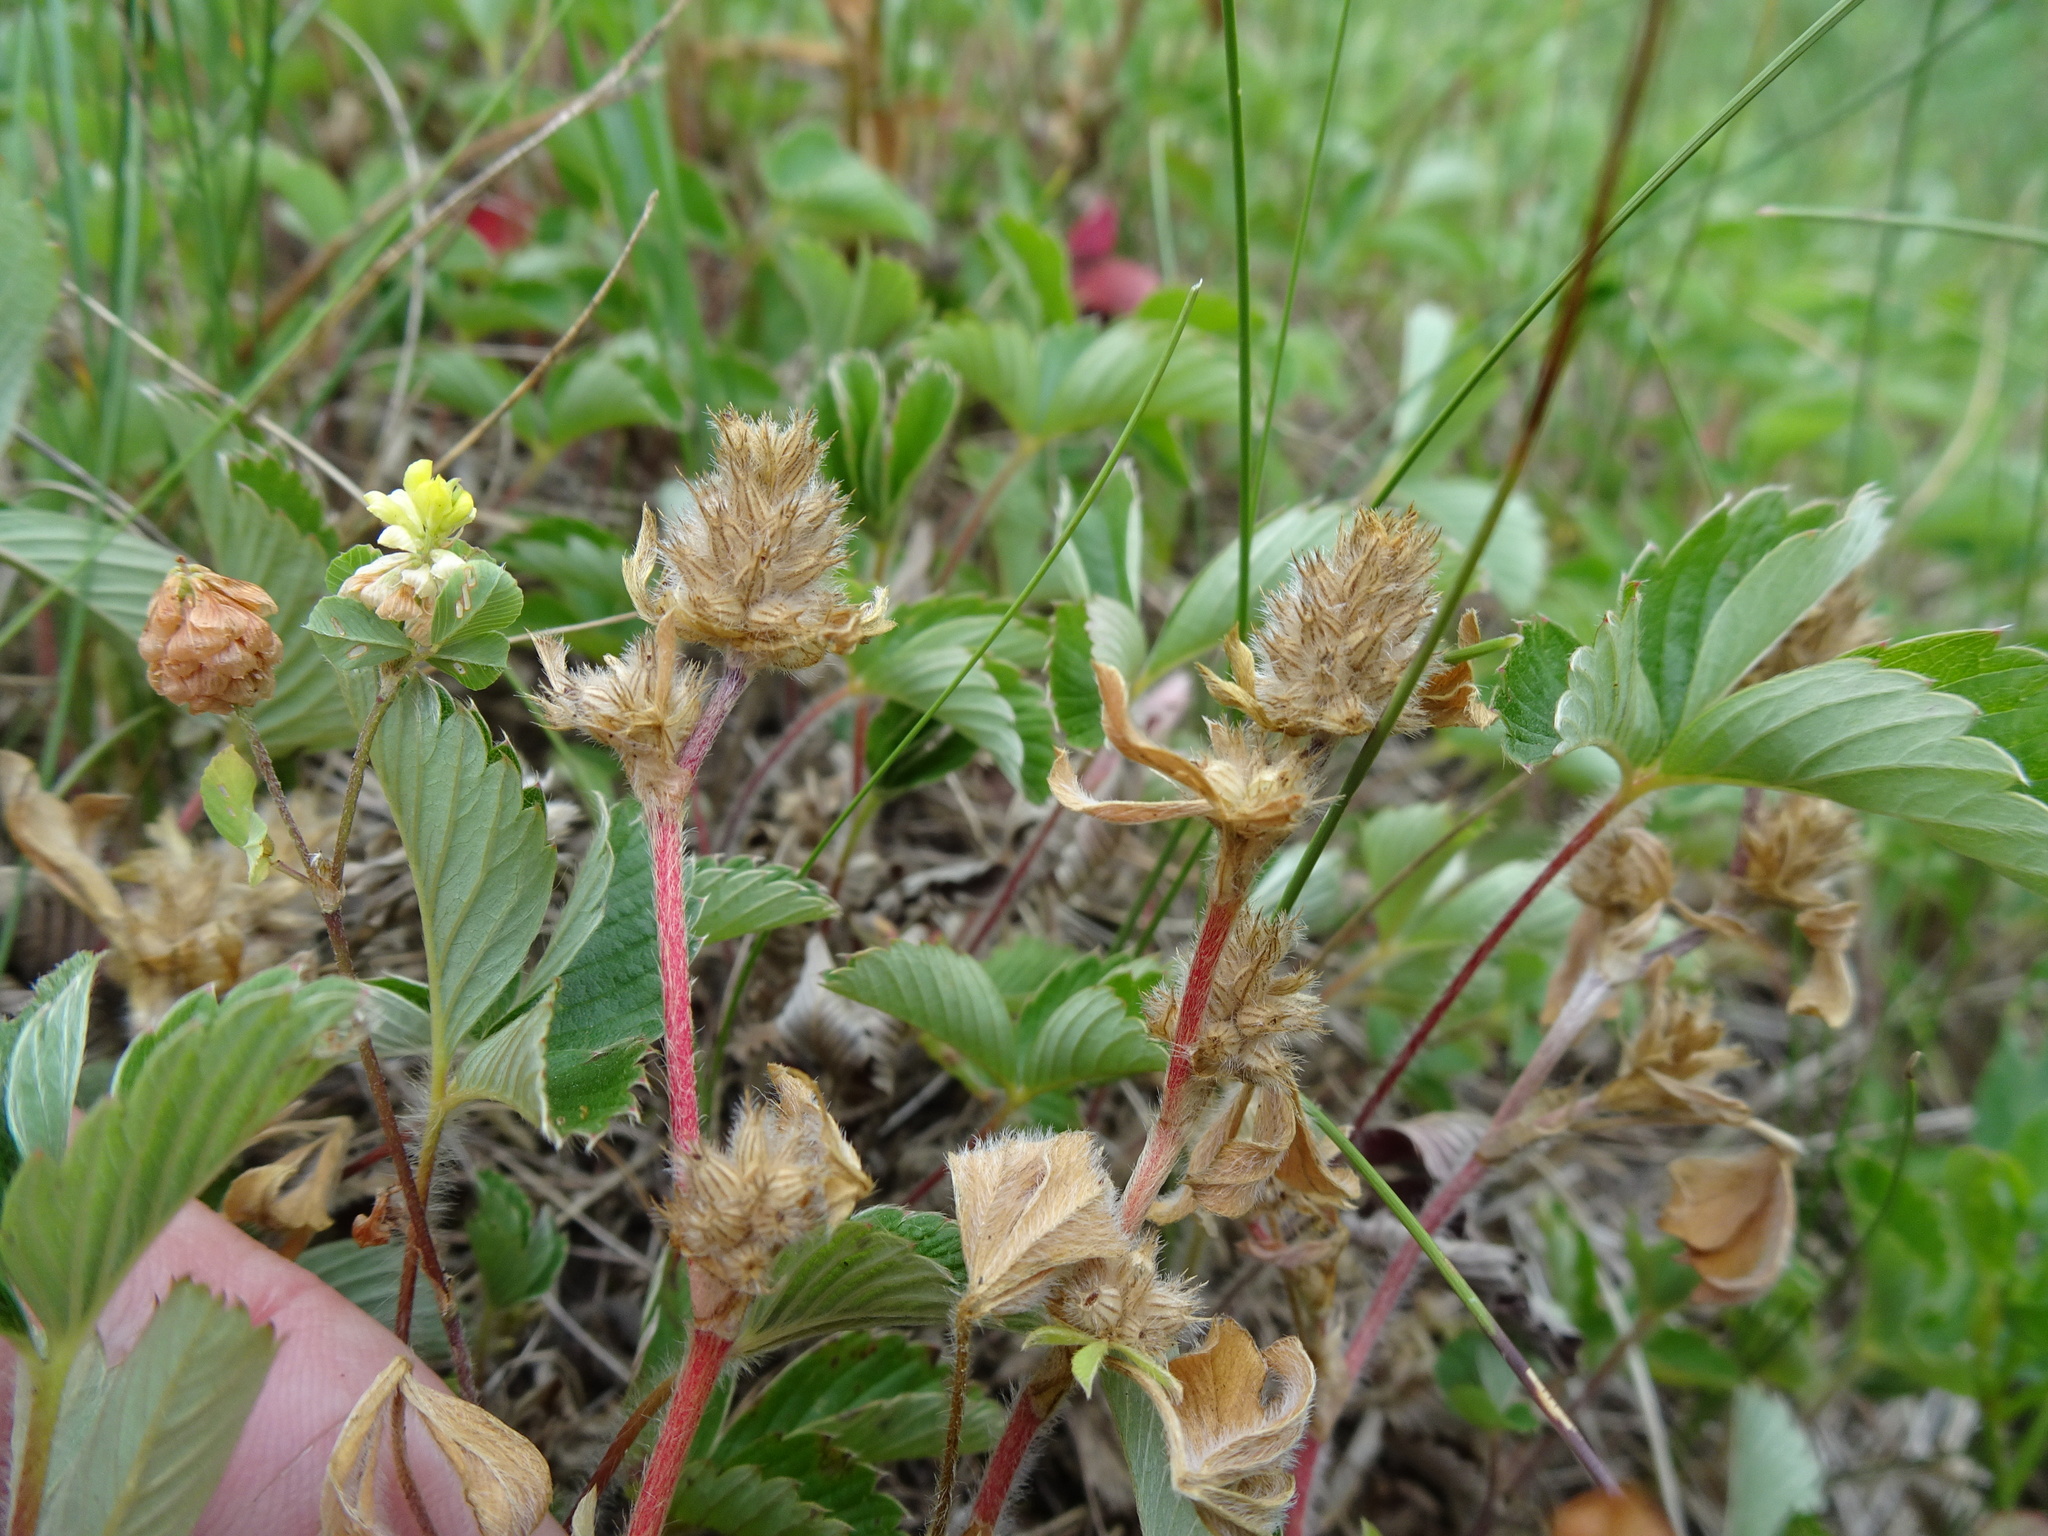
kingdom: Plantae
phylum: Tracheophyta
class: Magnoliopsida
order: Fabales
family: Fabaceae
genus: Trifolium
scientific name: Trifolium striatum
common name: Knotted clover
